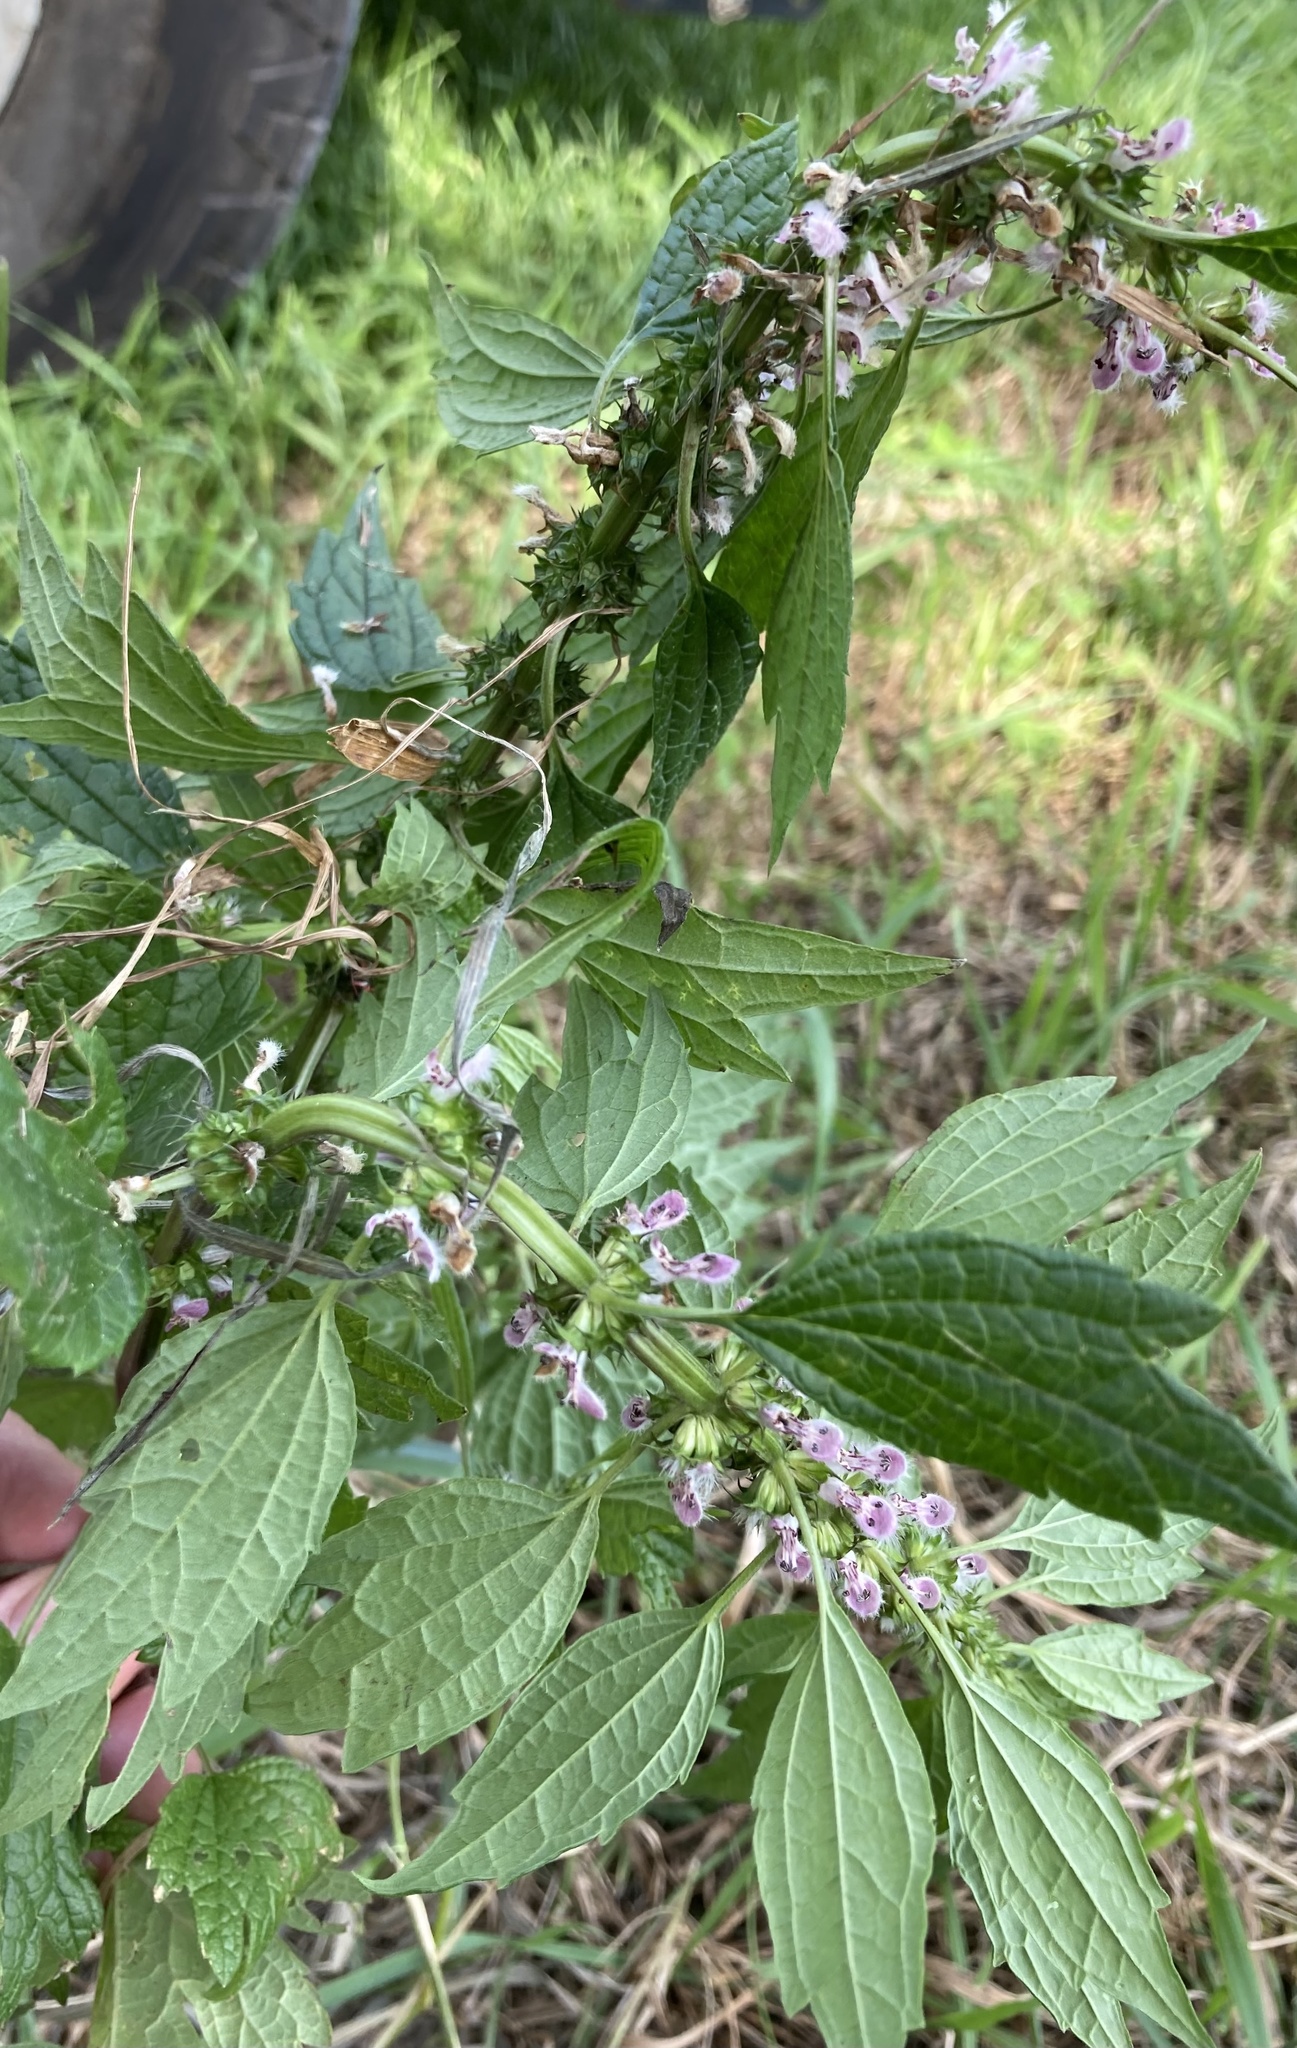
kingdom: Plantae
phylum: Tracheophyta
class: Magnoliopsida
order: Lamiales
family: Lamiaceae
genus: Leonurus
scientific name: Leonurus cardiaca
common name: Motherwort
